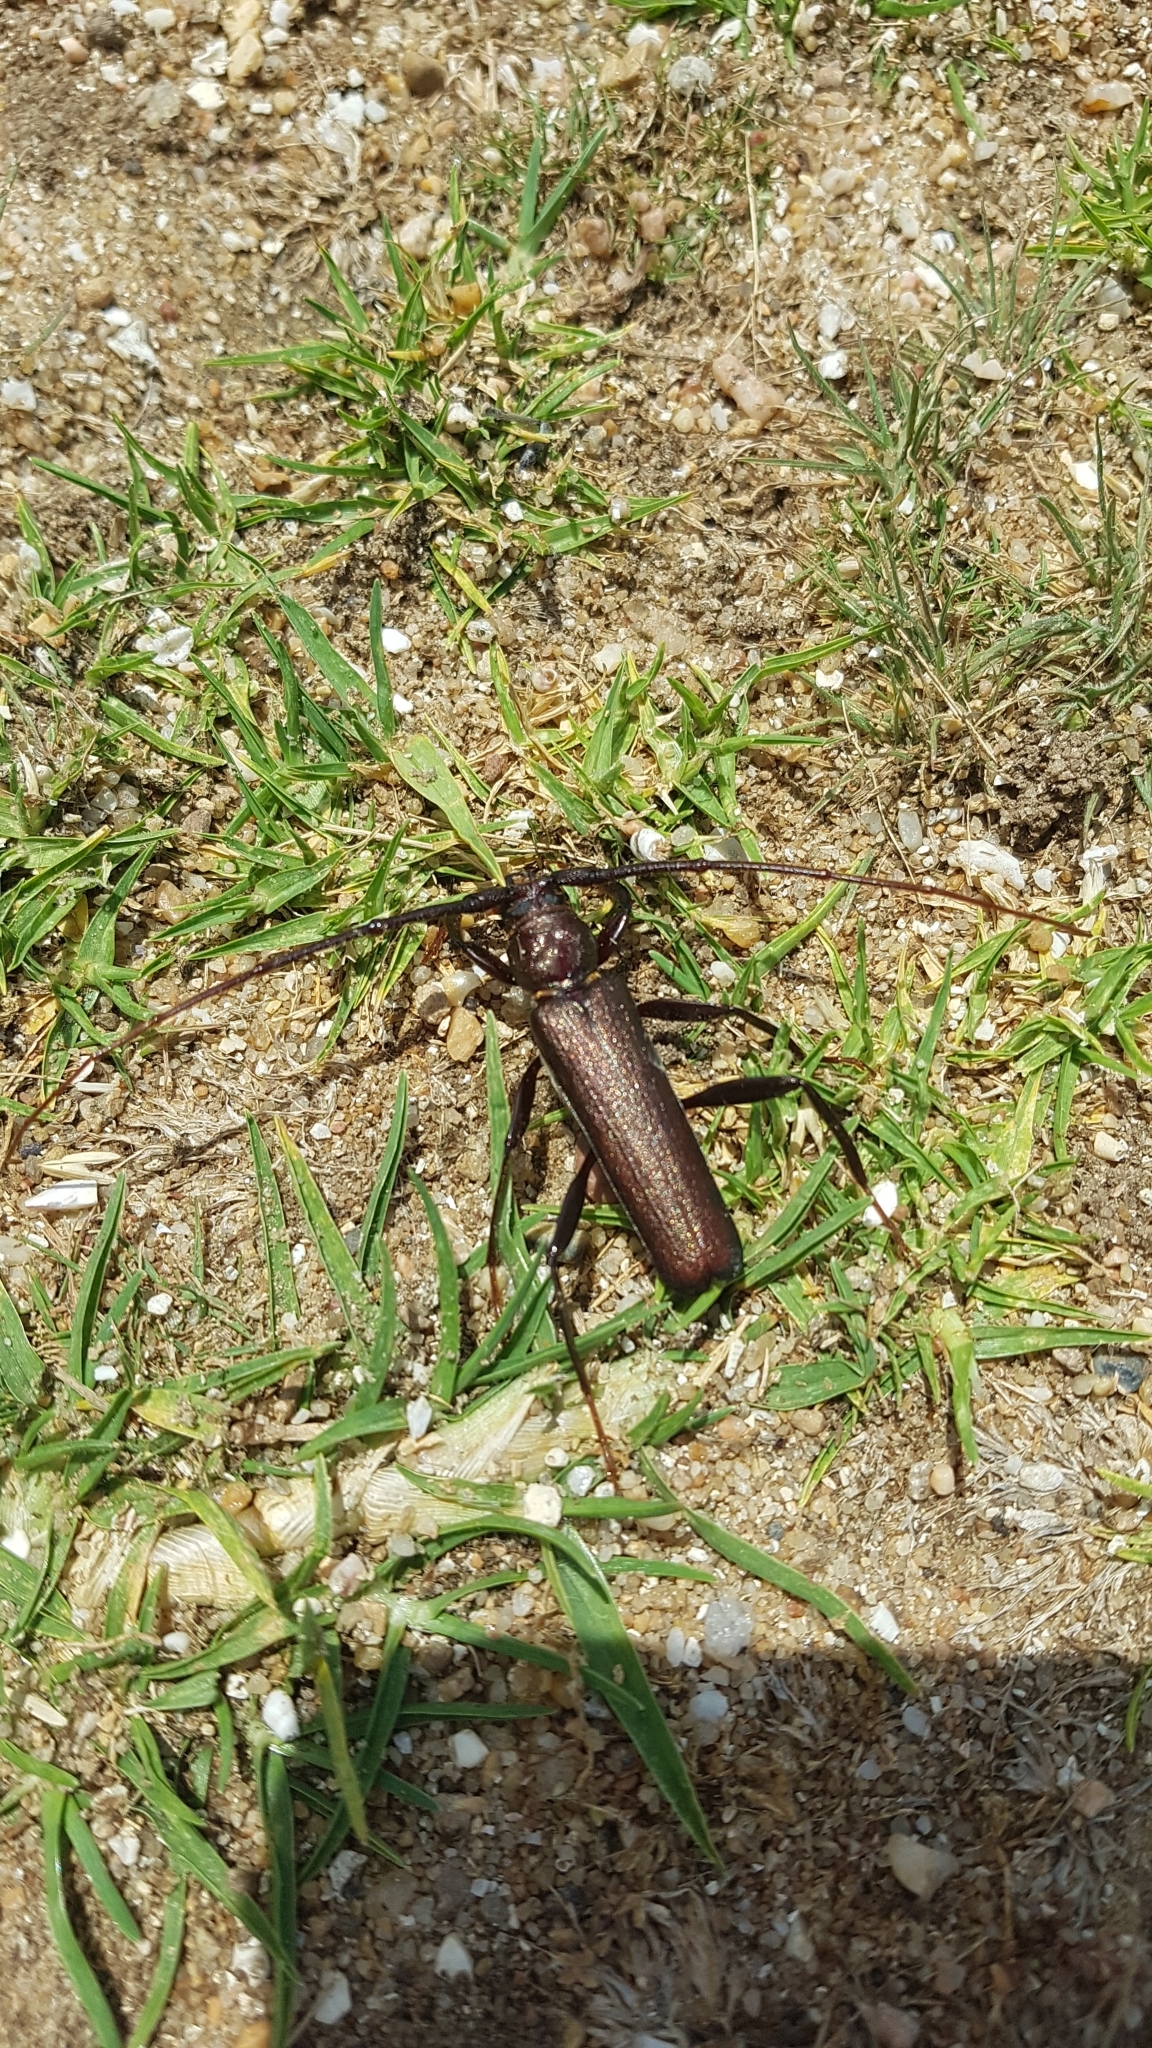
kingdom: Animalia
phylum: Arthropoda
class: Insecta
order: Coleoptera
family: Cerambycidae
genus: Xystrocera
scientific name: Xystrocera virescens
